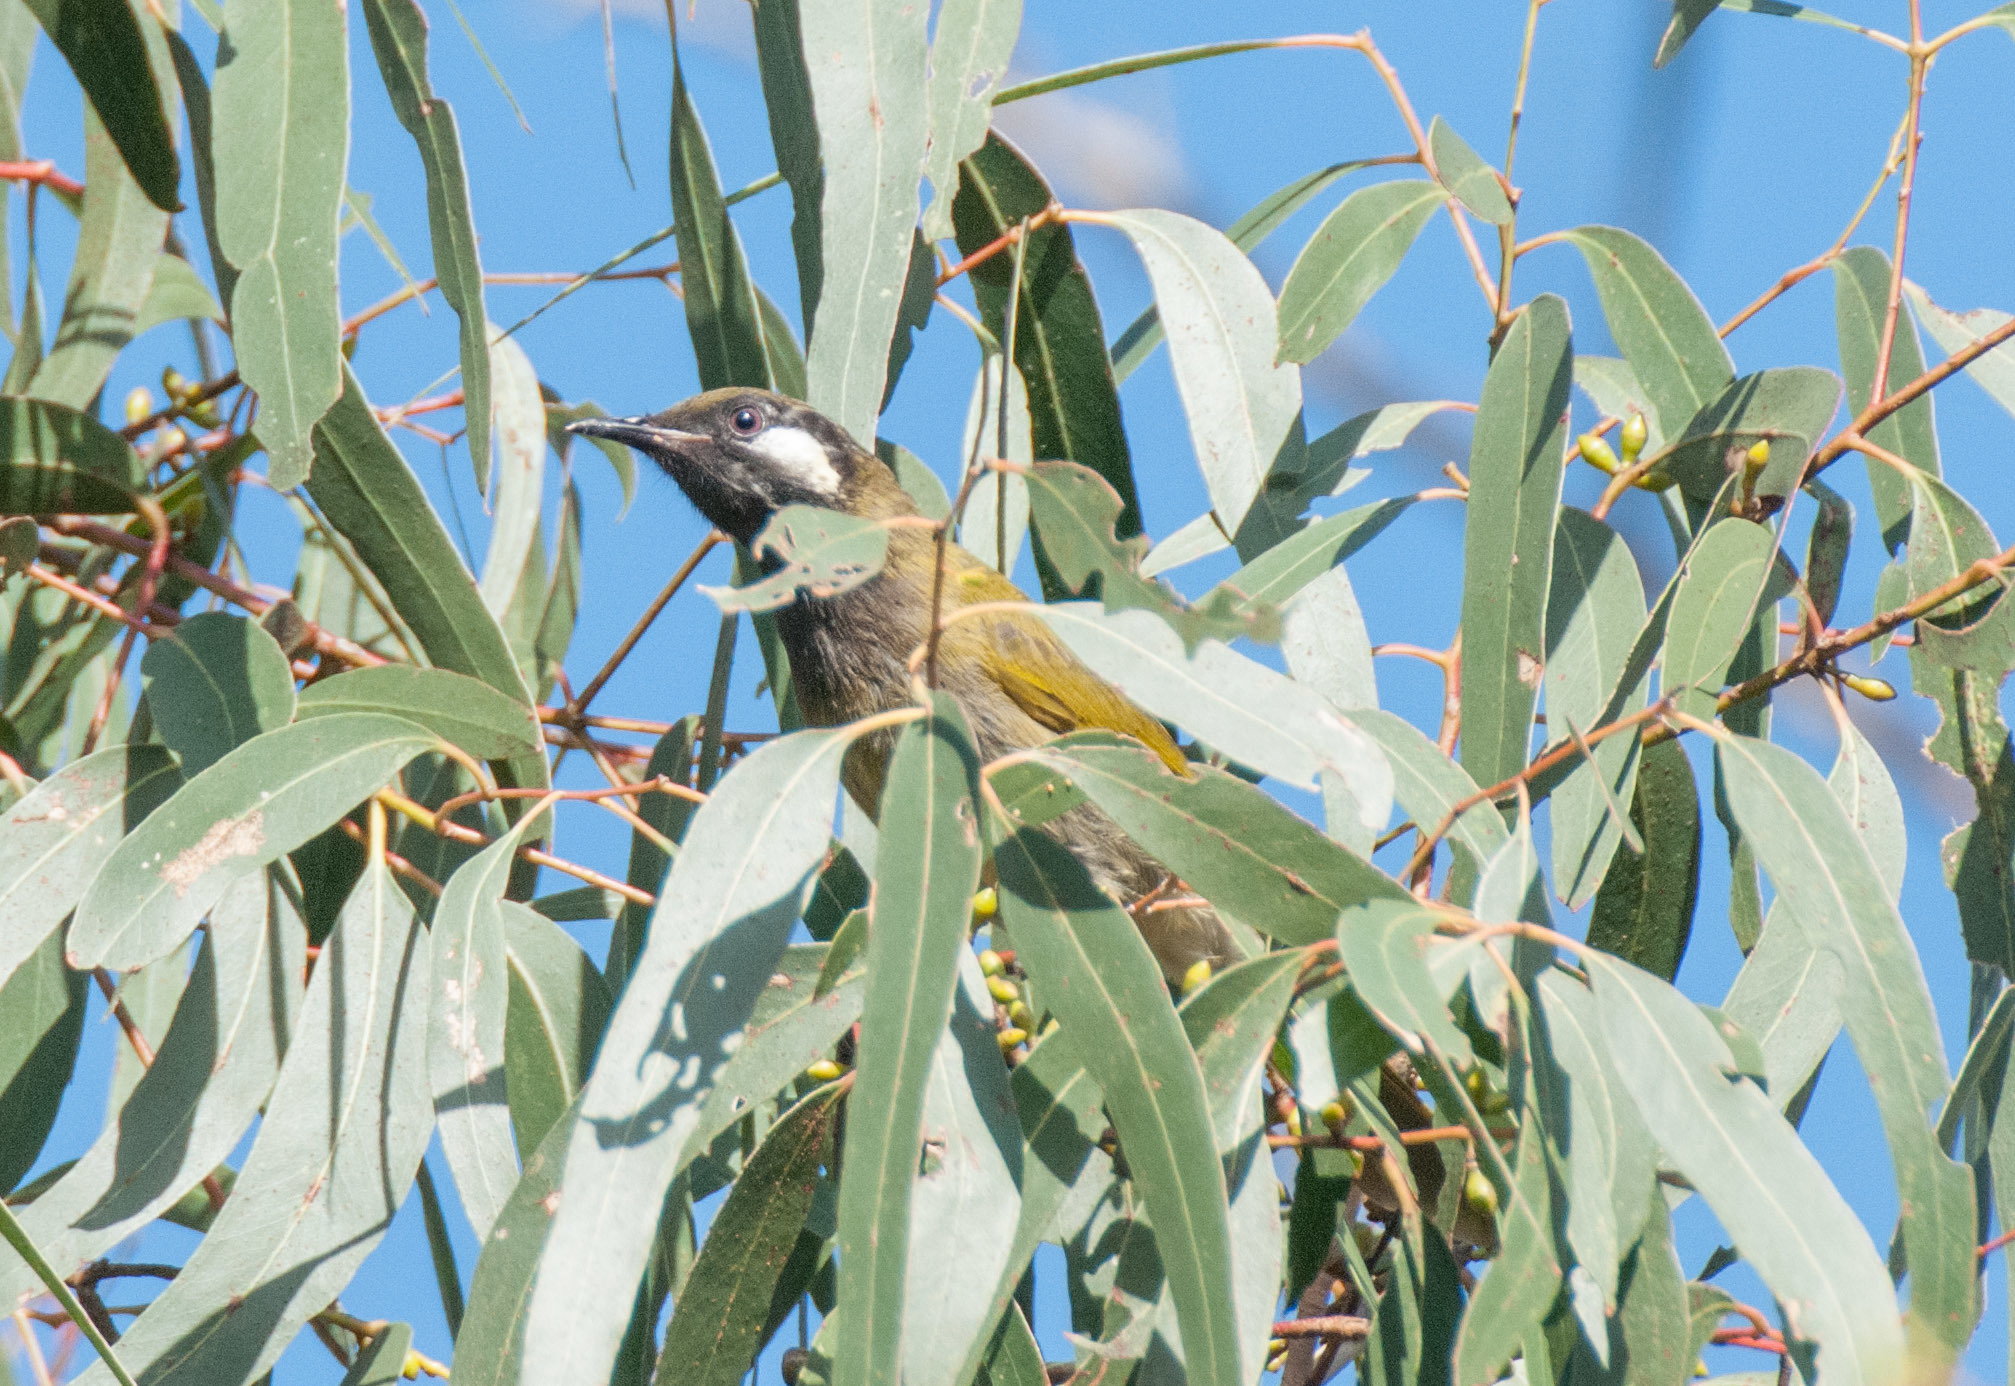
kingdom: Animalia
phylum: Chordata
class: Aves
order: Passeriformes
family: Meliphagidae
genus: Nesoptilotis
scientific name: Nesoptilotis leucotis
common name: White-eared honeyeater
